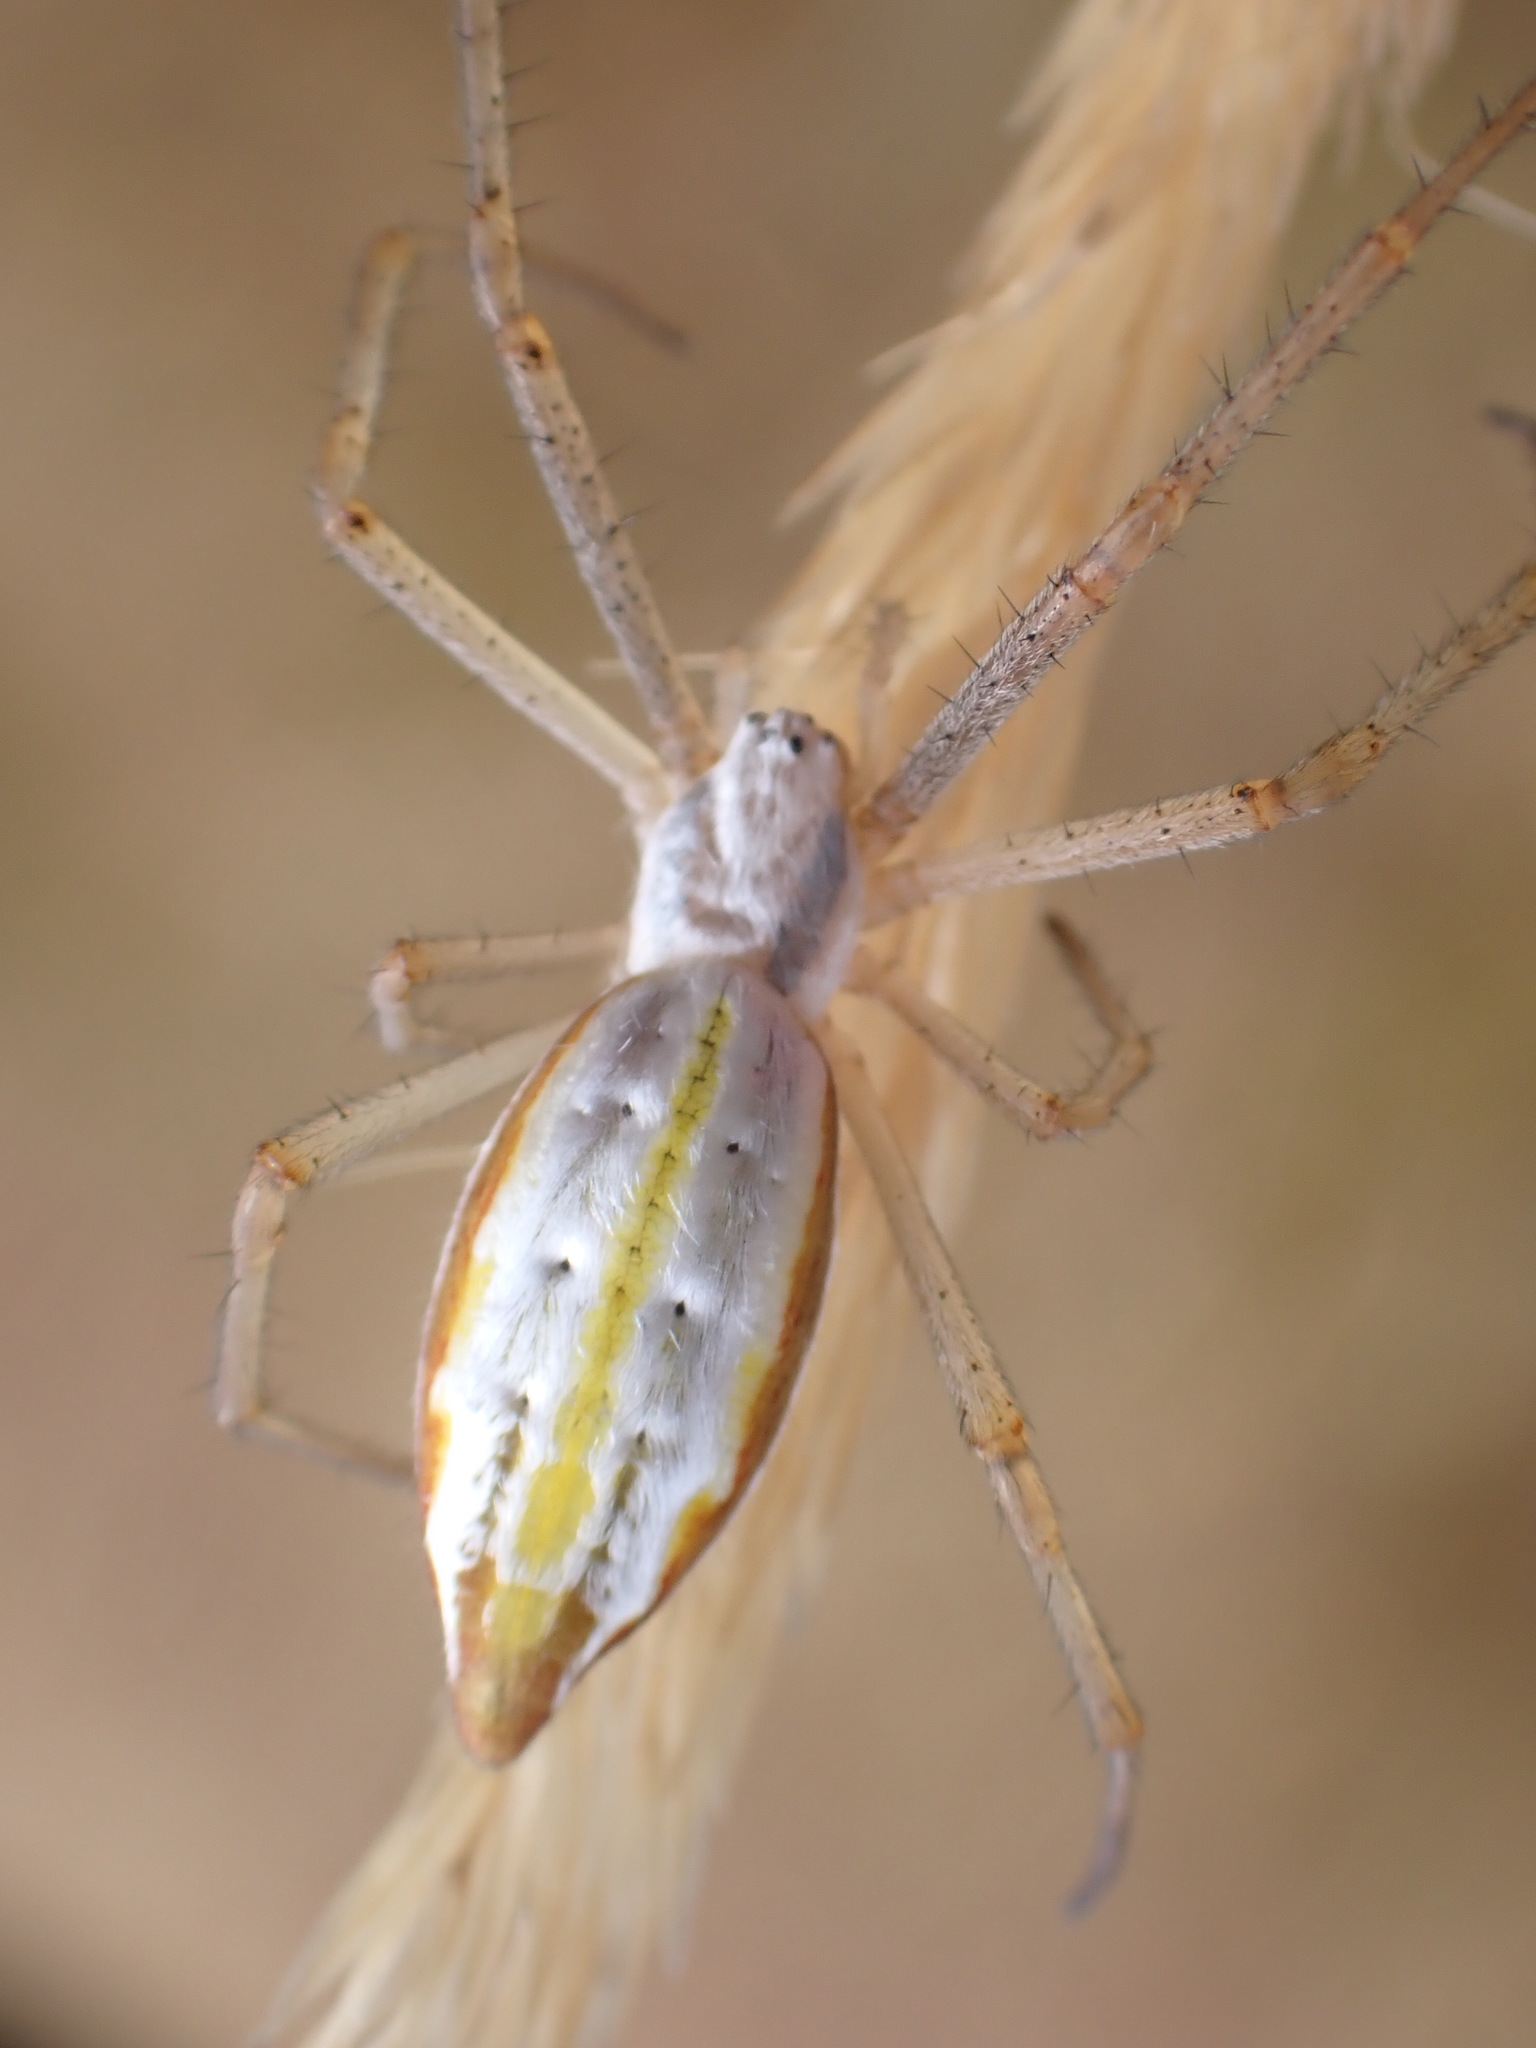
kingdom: Animalia
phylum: Arthropoda
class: Arachnida
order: Araneae
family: Araneidae
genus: Argiope
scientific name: Argiope protensa
